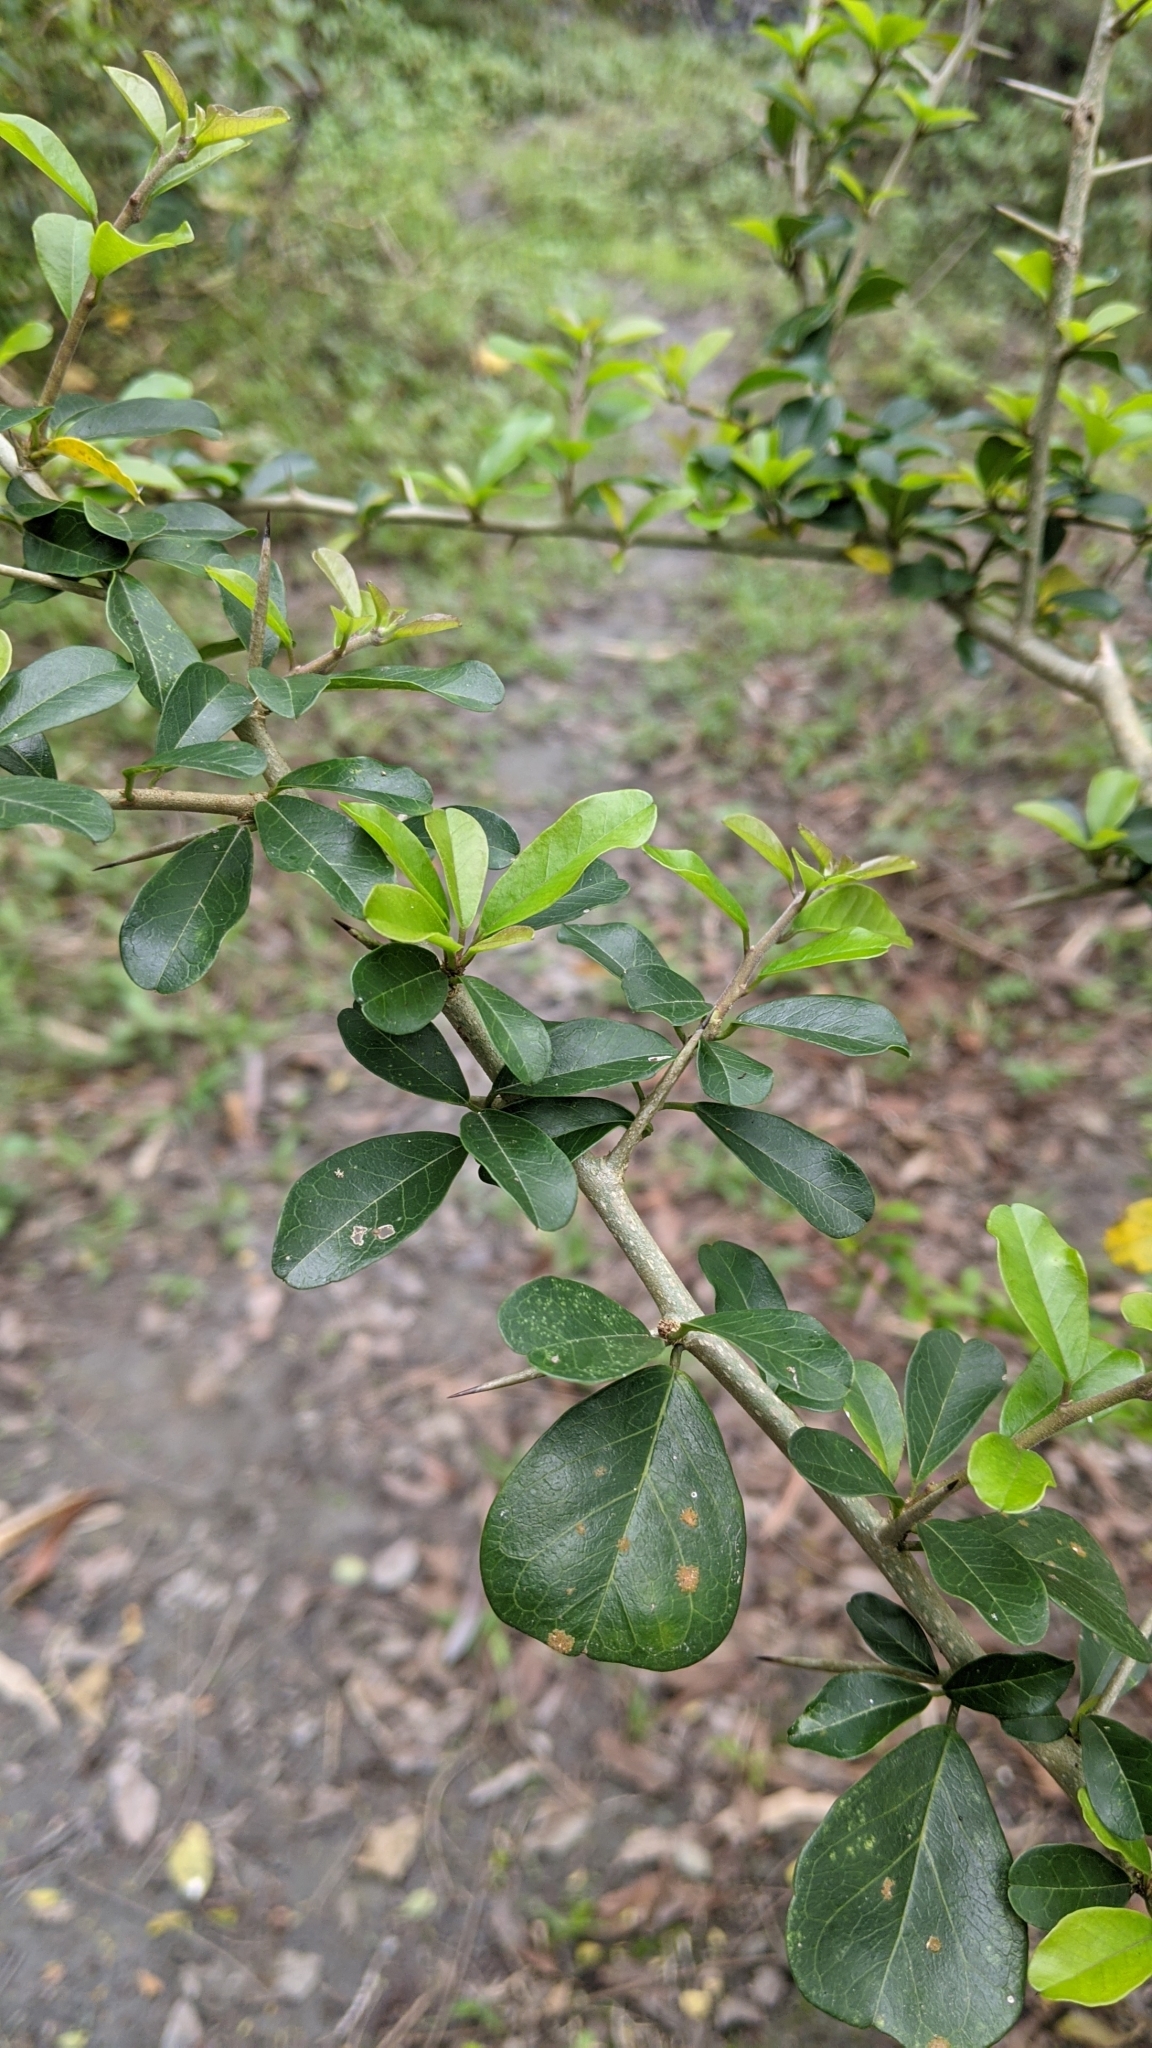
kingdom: Plantae
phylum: Tracheophyta
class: Magnoliopsida
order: Rosales
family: Moraceae
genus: Maclura
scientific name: Maclura cochinchinensis
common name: Cockspurthorn
